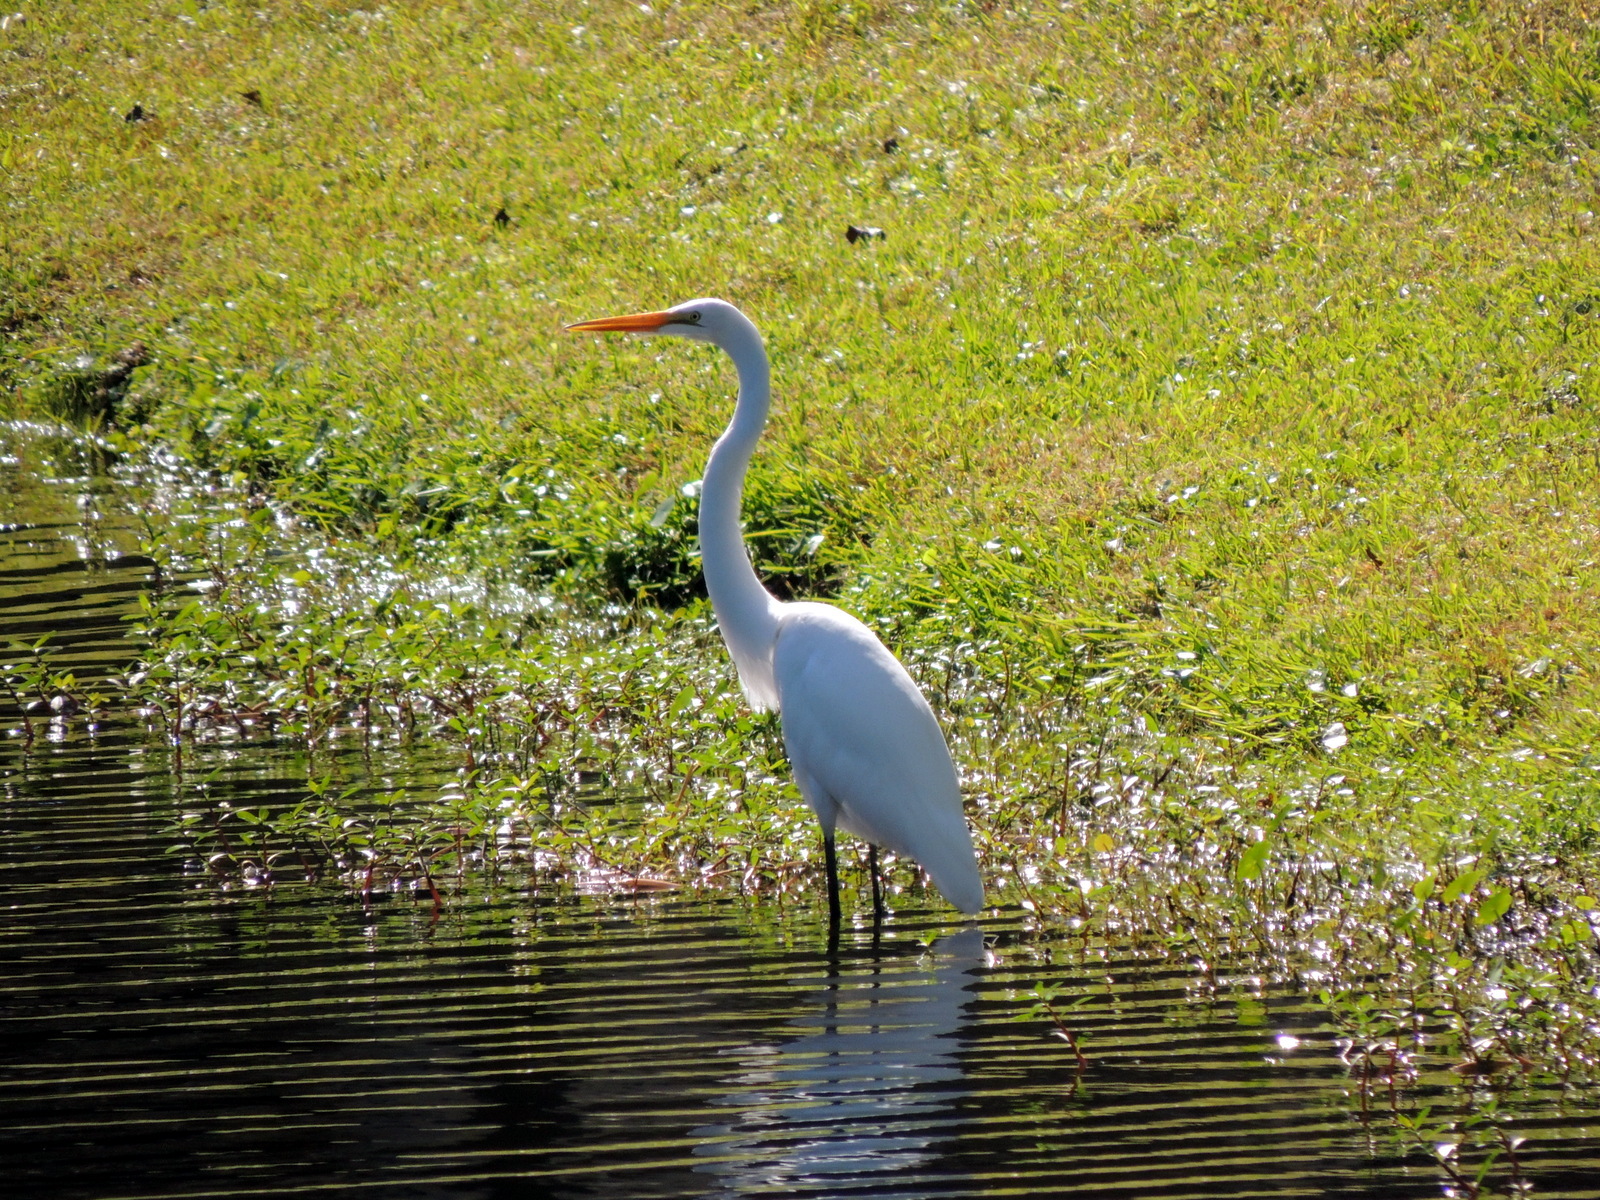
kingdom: Animalia
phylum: Chordata
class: Aves
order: Pelecaniformes
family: Ardeidae
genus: Ardea
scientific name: Ardea alba
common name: Great egret
